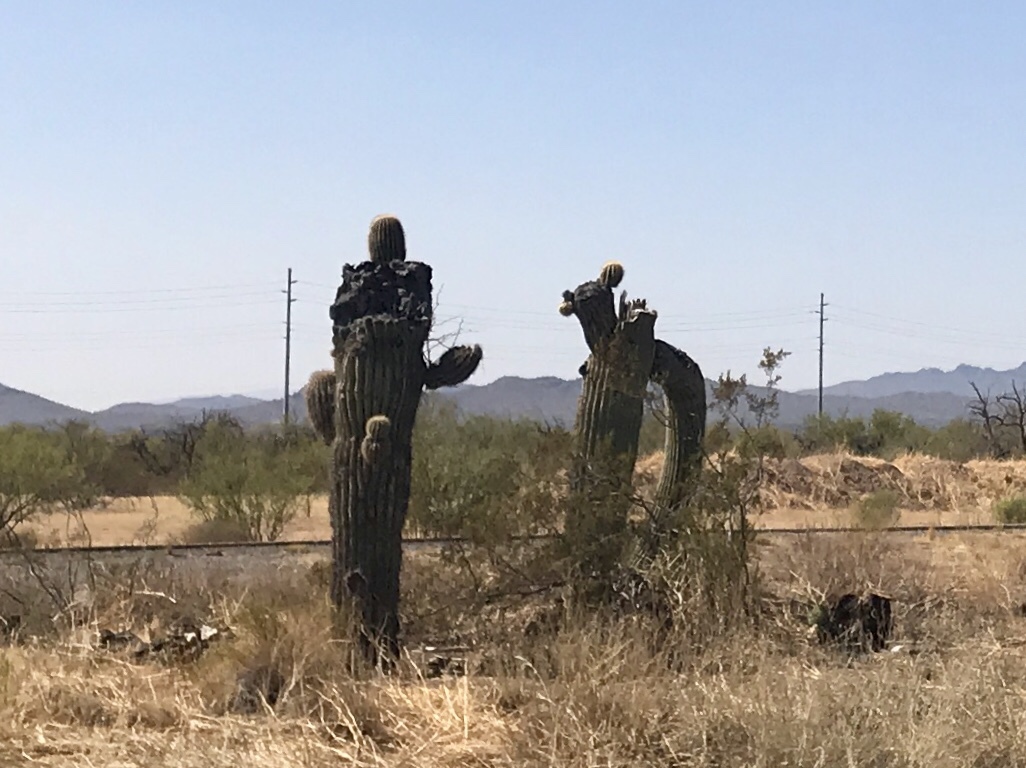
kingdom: Plantae
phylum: Tracheophyta
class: Magnoliopsida
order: Caryophyllales
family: Cactaceae
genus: Carnegiea
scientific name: Carnegiea gigantea
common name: Saguaro
